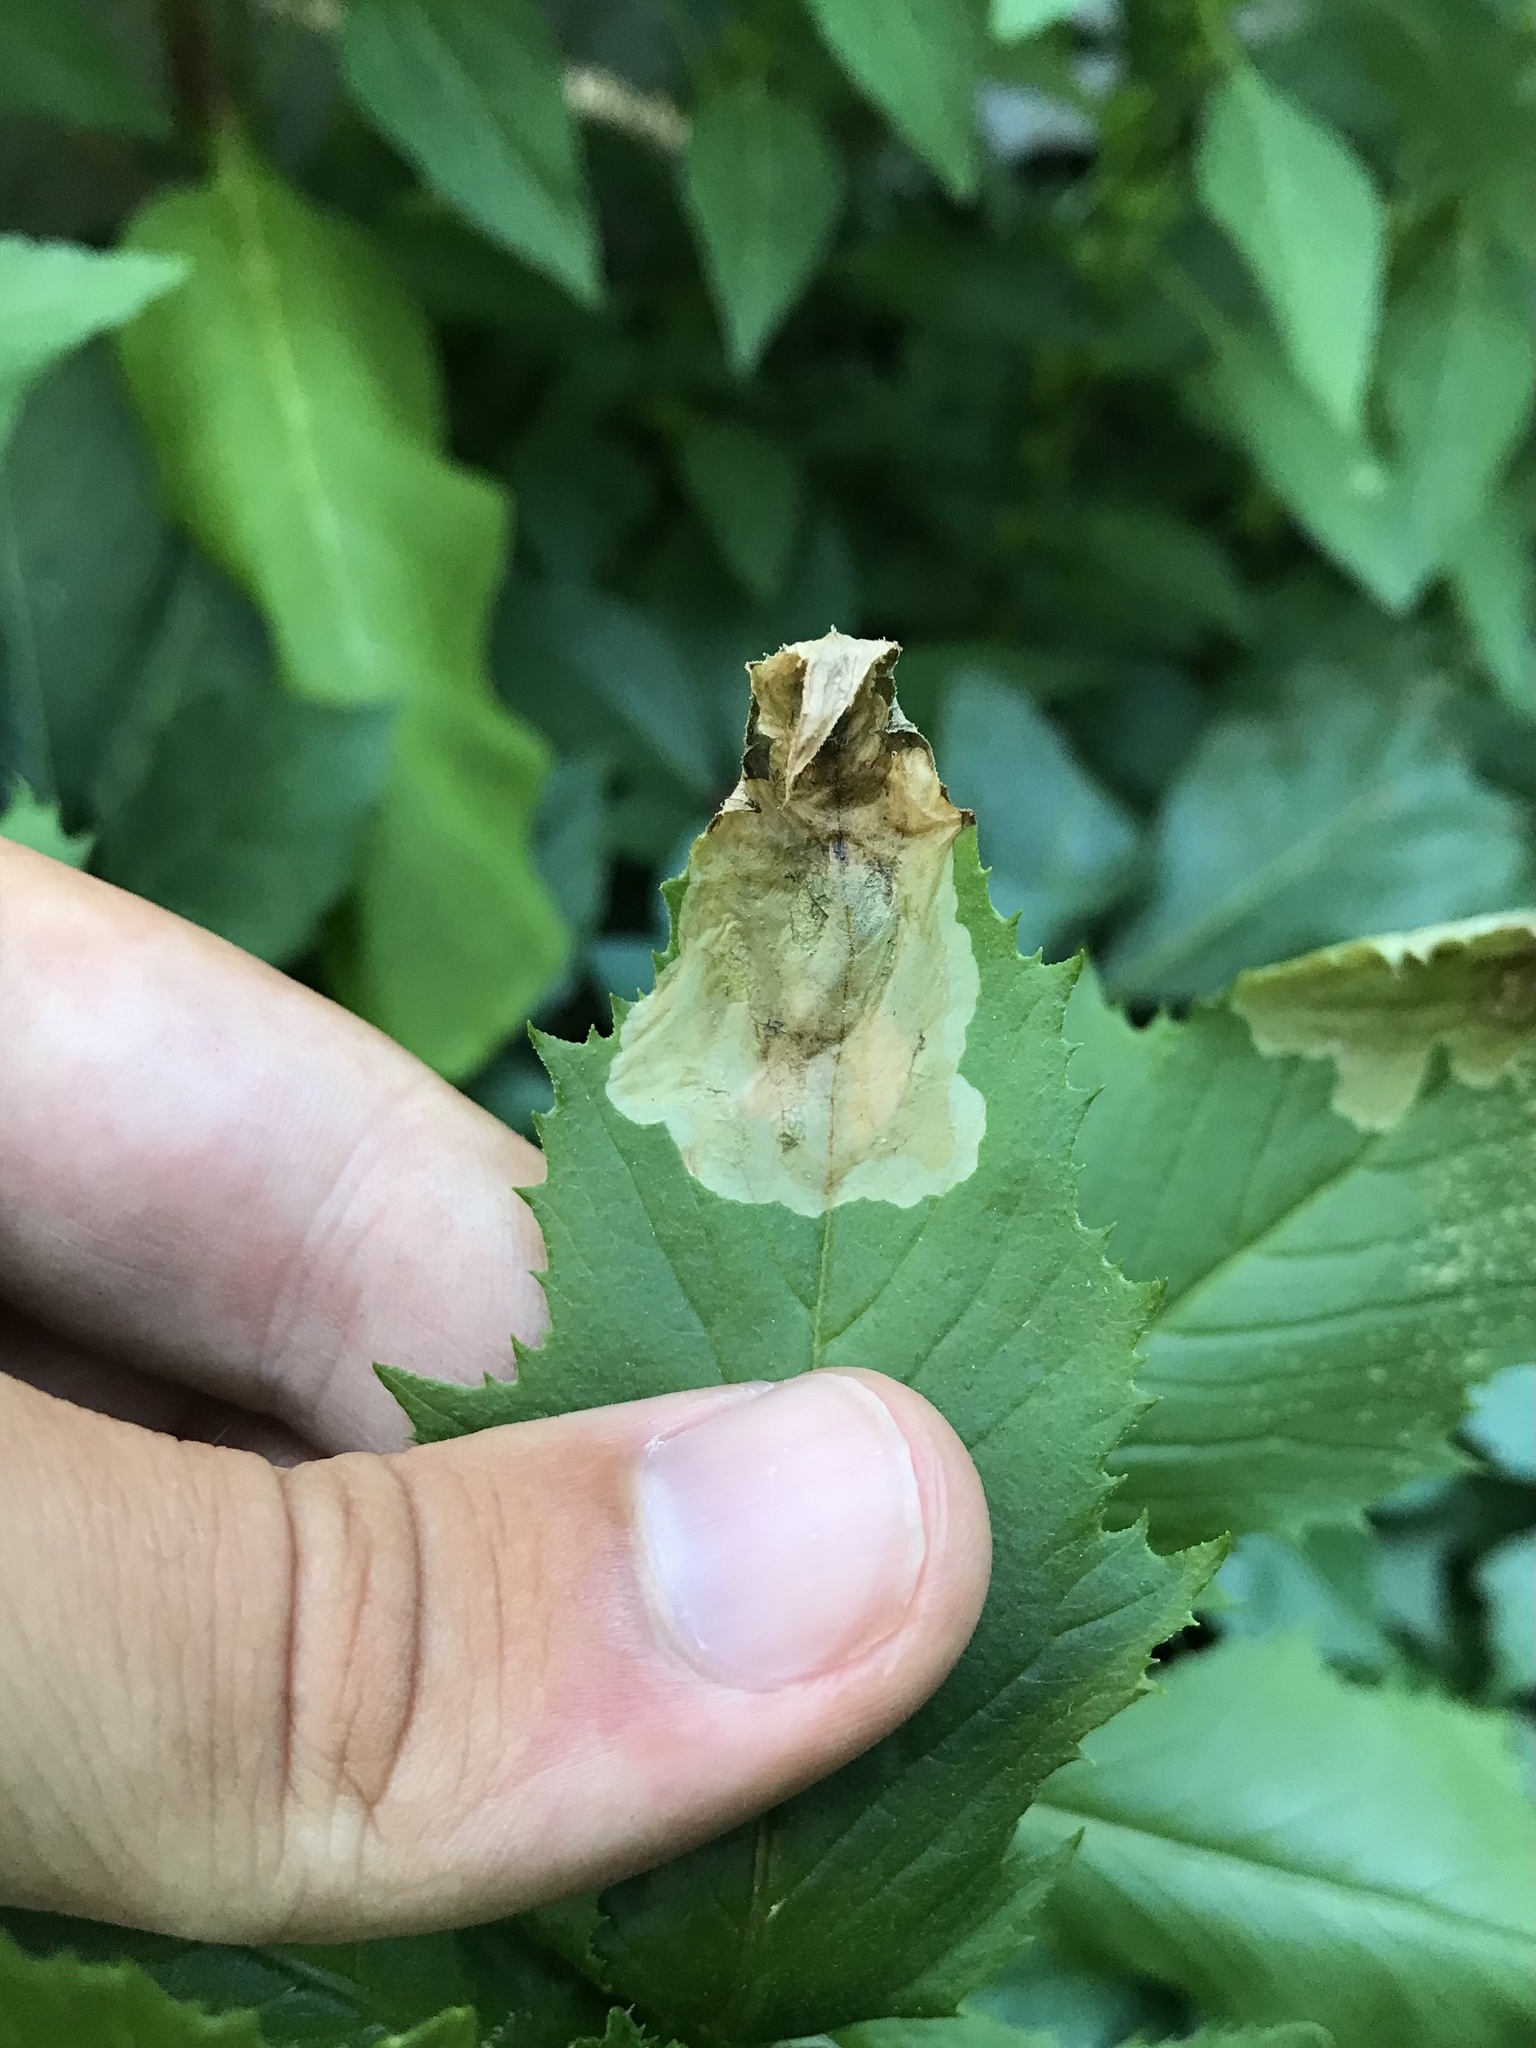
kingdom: Animalia
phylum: Arthropoda
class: Insecta
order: Diptera
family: Agromyzidae
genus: Nemorimyza
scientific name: Nemorimyza maculosa
